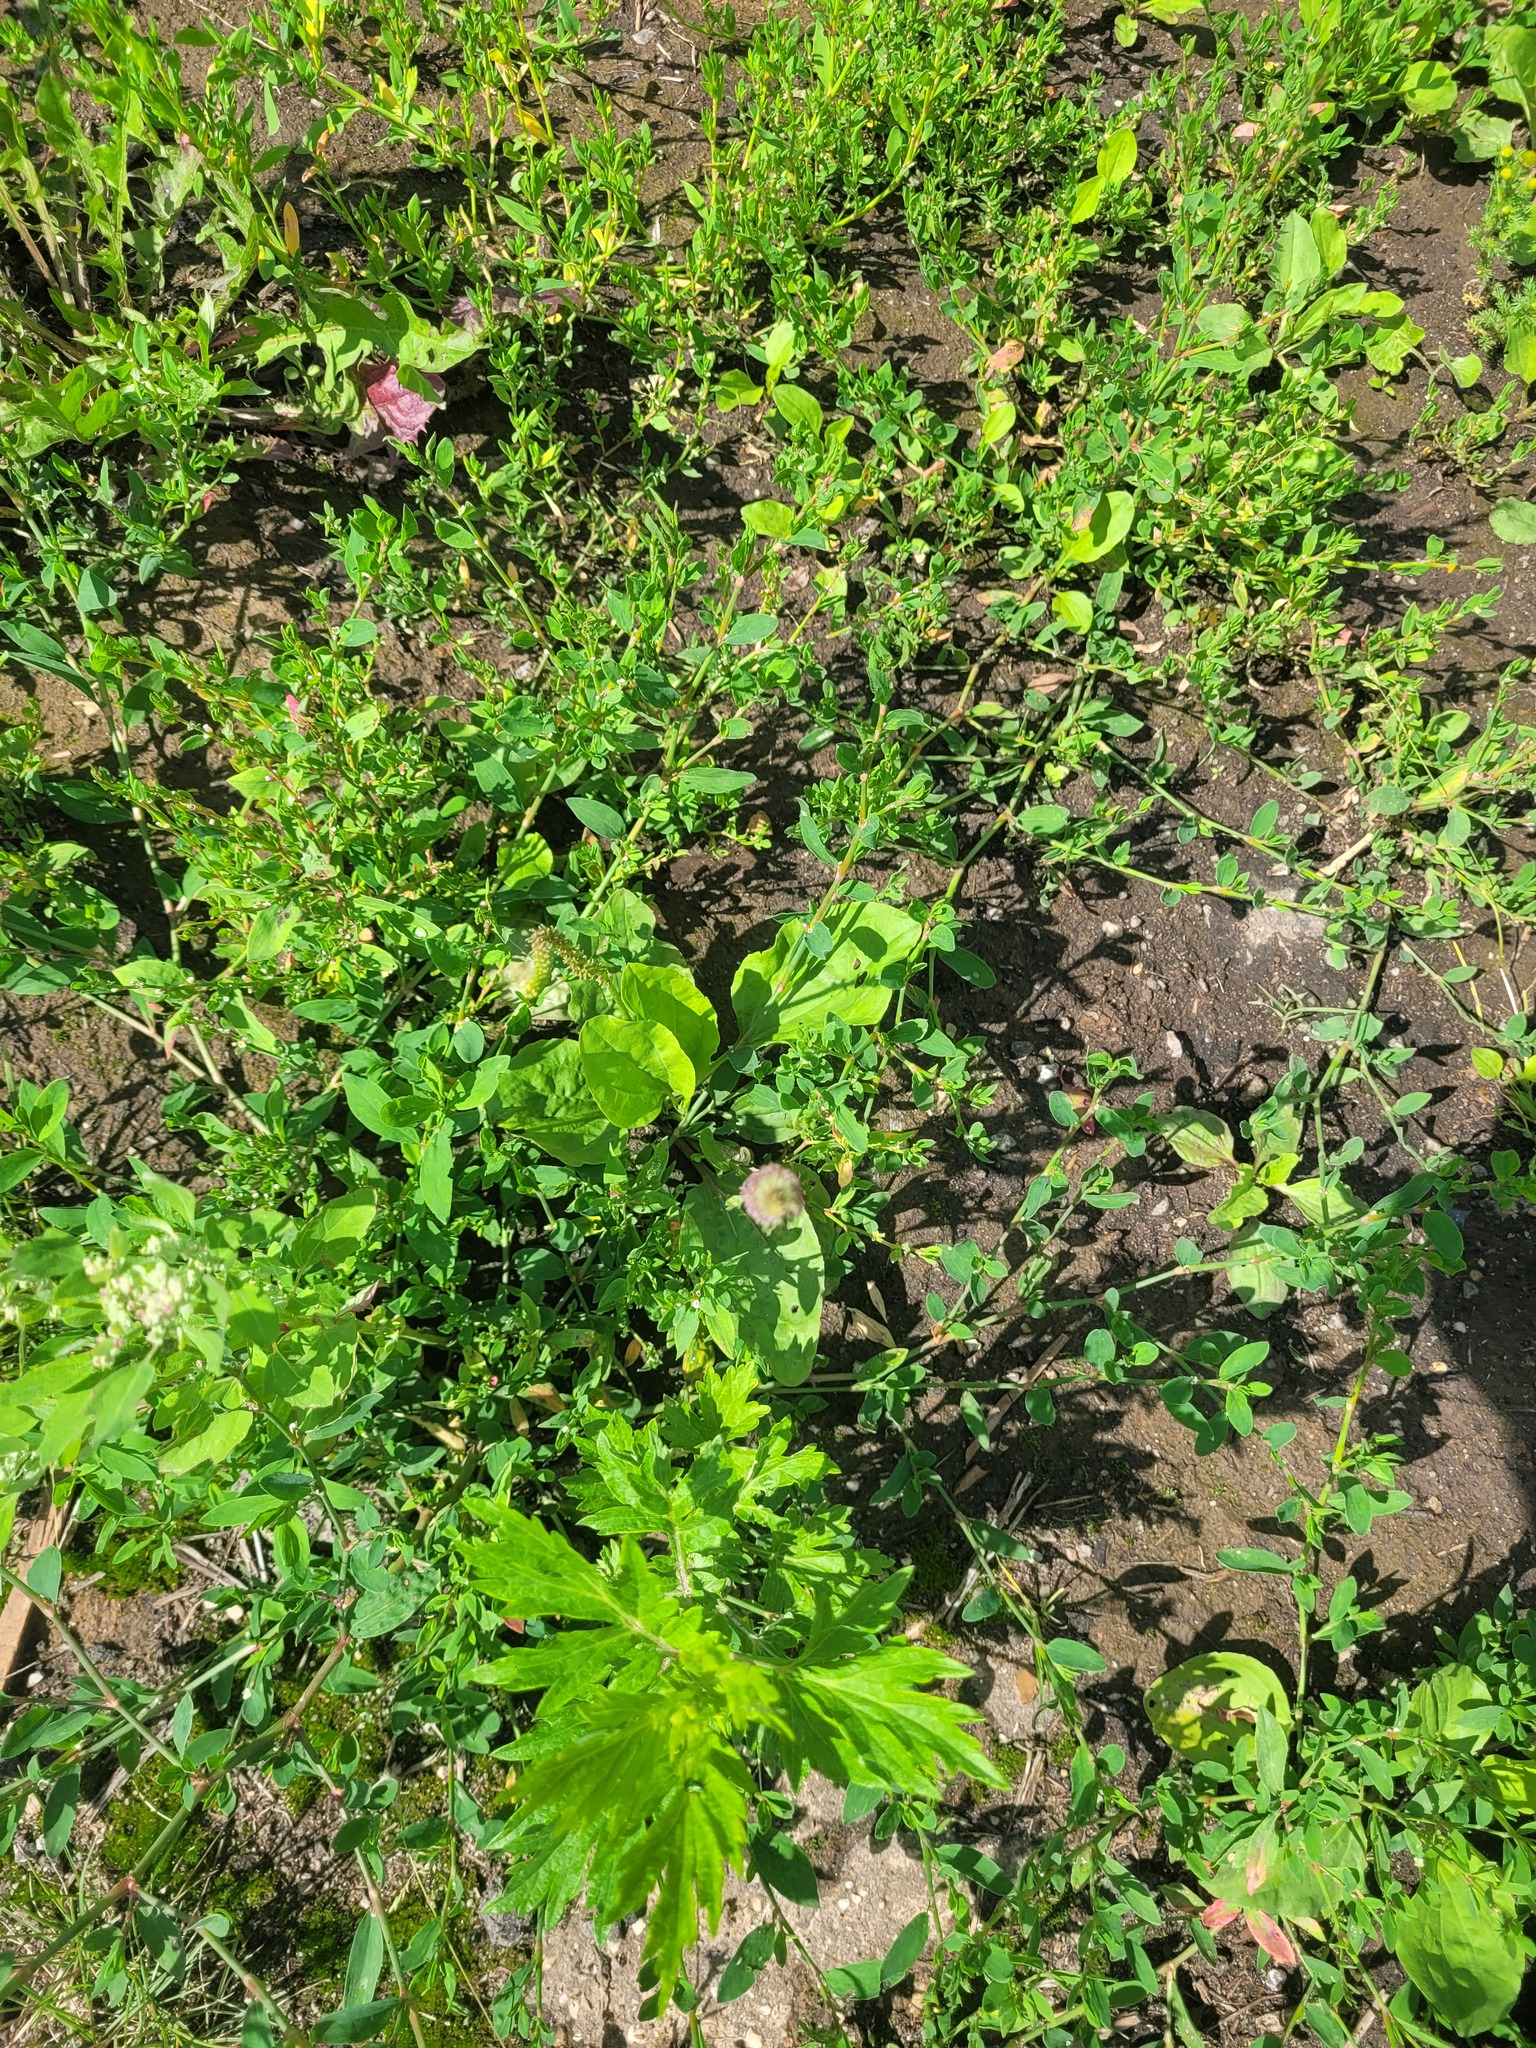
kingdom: Plantae
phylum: Tracheophyta
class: Magnoliopsida
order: Lamiales
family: Plantaginaceae
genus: Plantago
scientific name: Plantago major
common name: Common plantain
